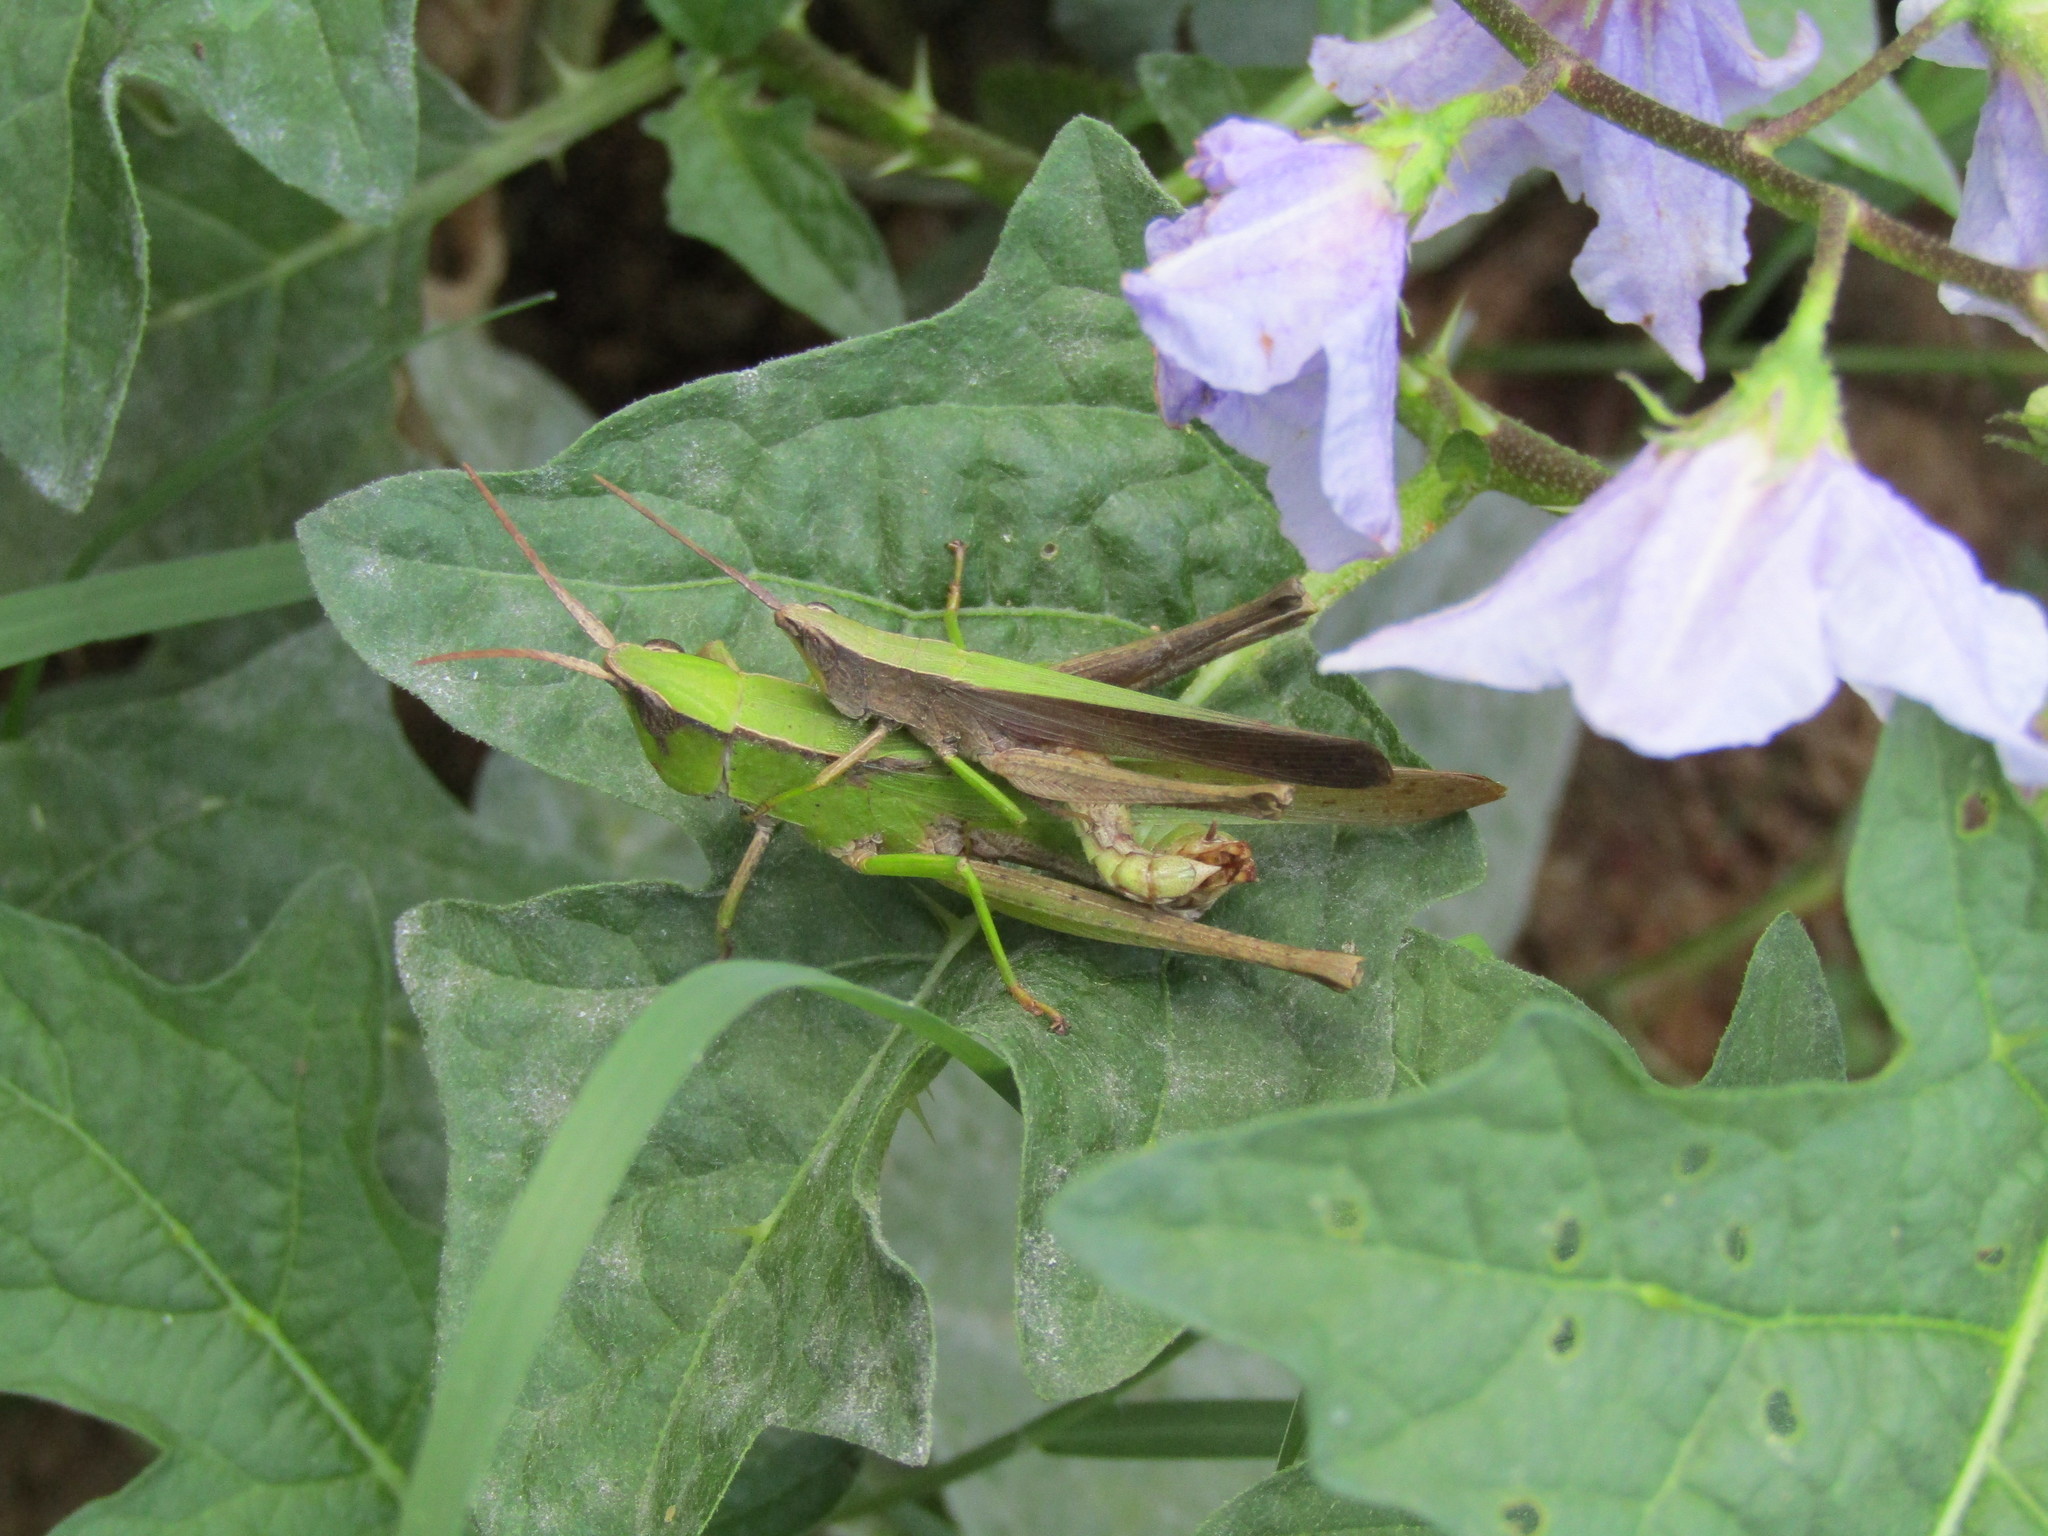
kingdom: Animalia
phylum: Arthropoda
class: Insecta
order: Orthoptera
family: Acrididae
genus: Metaleptea
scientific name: Metaleptea brevicornis
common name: Clipped-wing grasshopper
